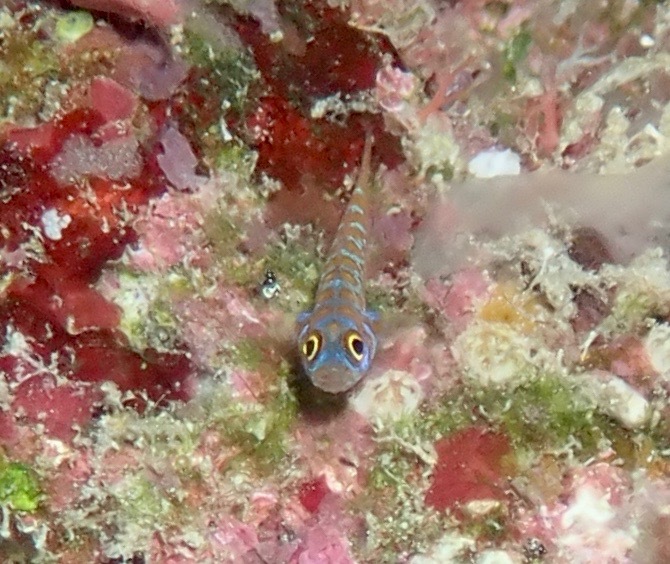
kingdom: Animalia
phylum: Chordata
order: Perciformes
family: Gobiidae
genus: Trimma
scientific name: Trimma maiandros
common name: Meander dwarfgoby
